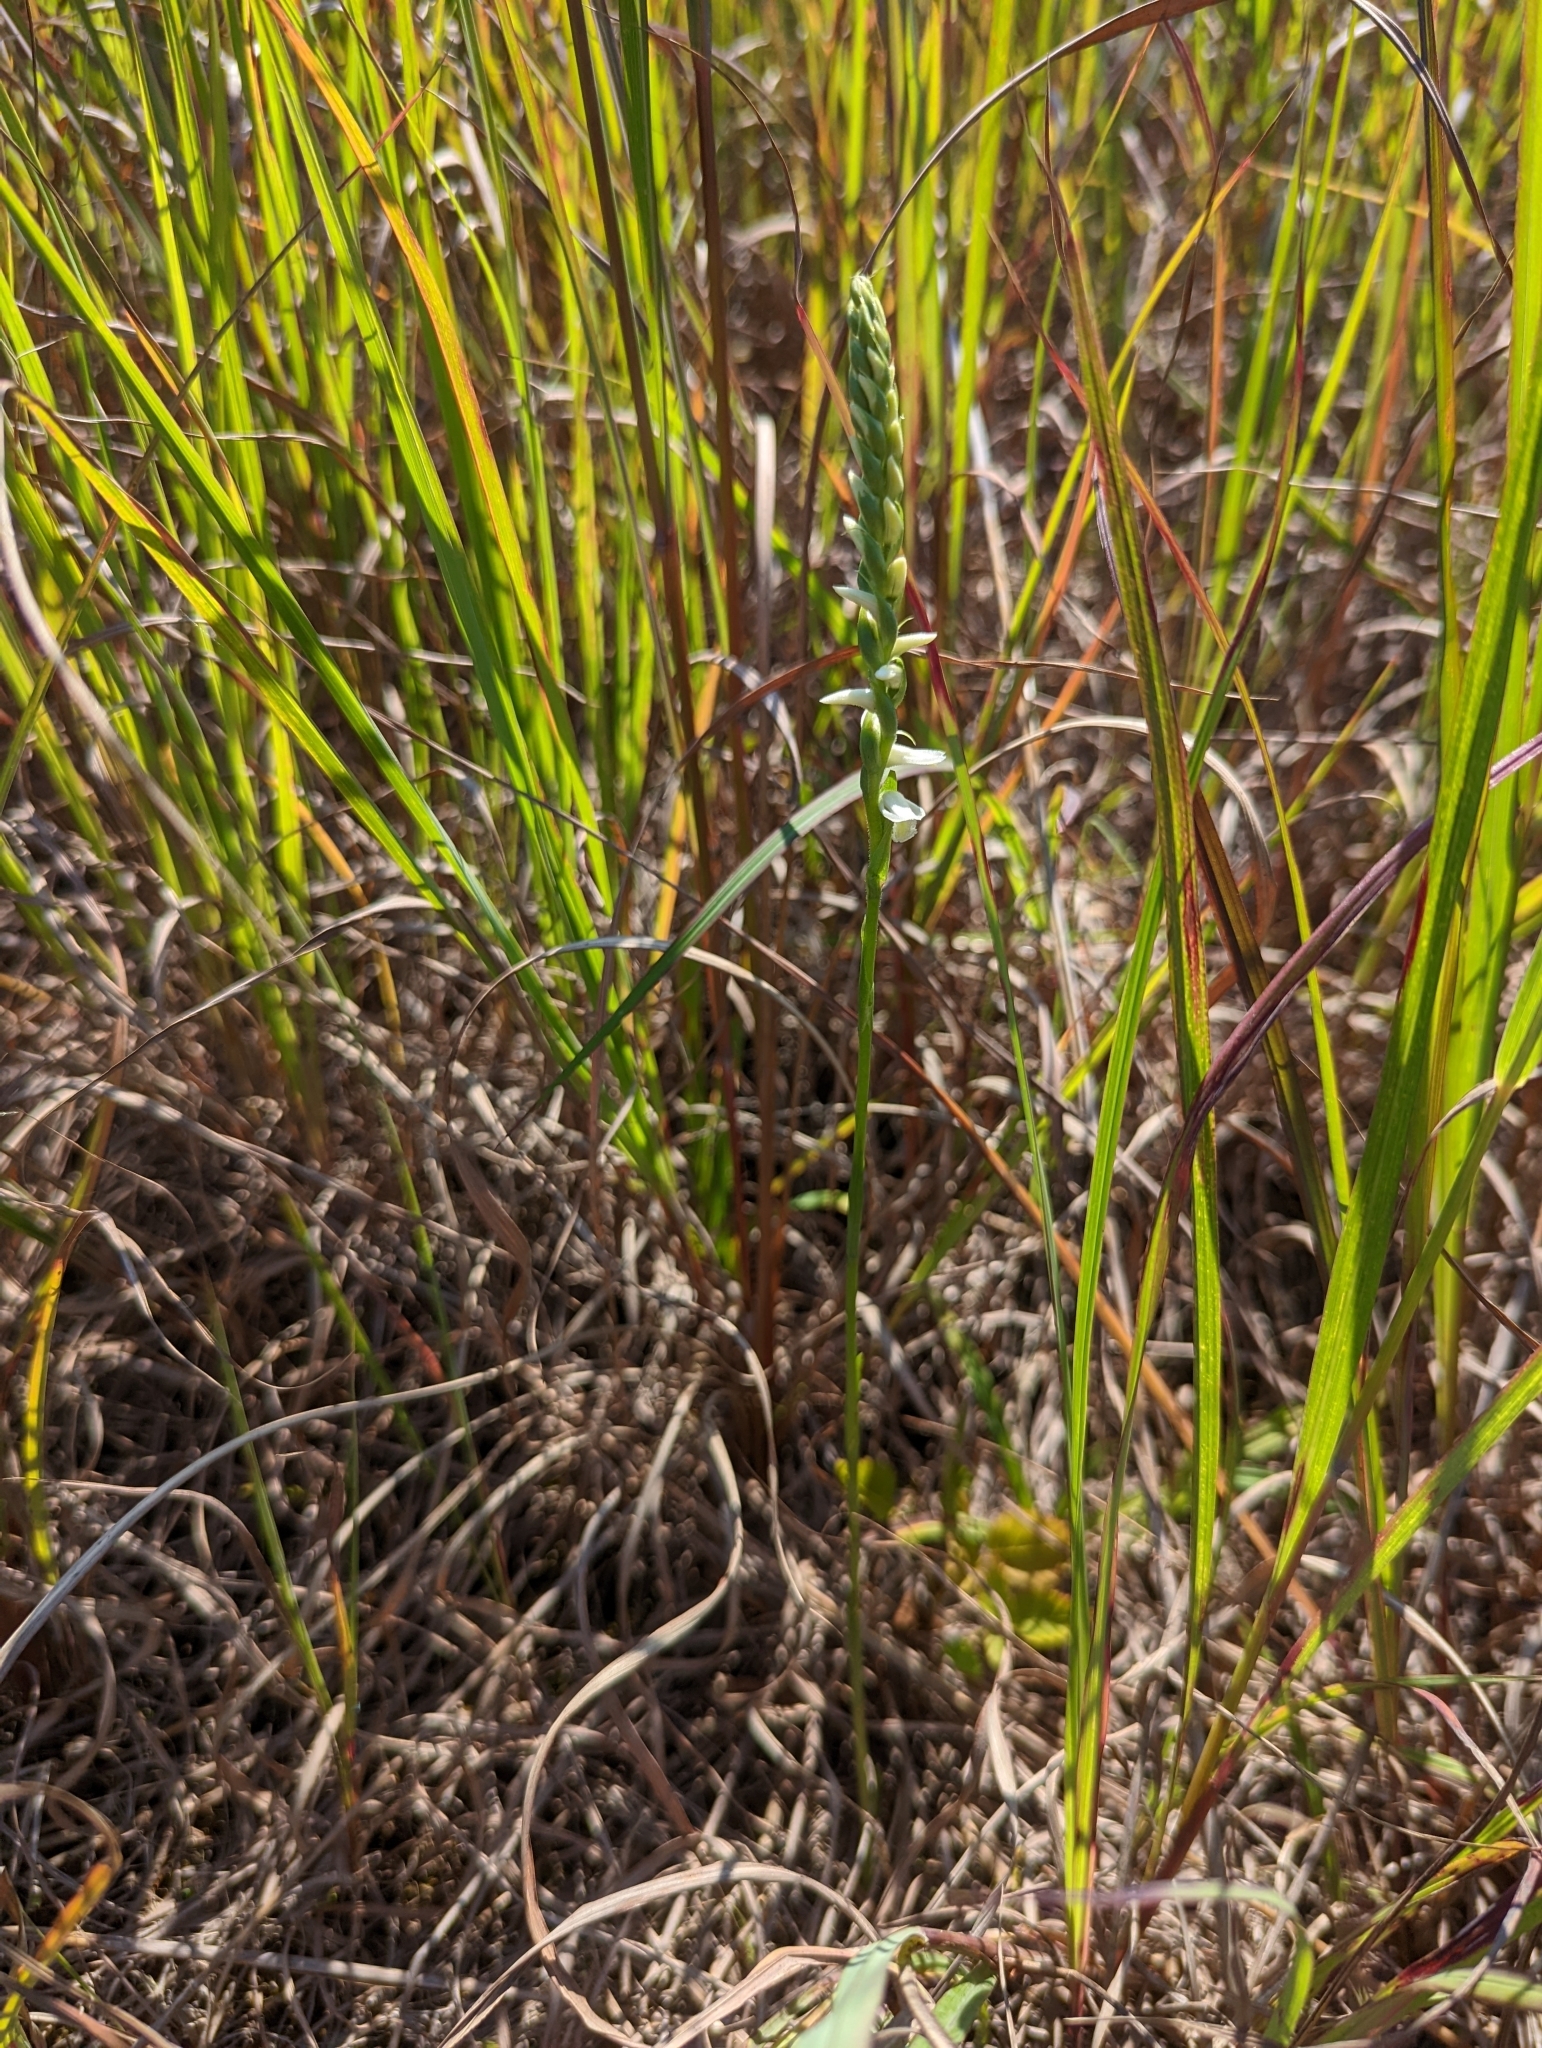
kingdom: Plantae
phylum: Tracheophyta
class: Liliopsida
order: Asparagales
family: Orchidaceae
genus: Spiranthes
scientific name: Spiranthes magnicamporum
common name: Great plains ladies'-tresses
